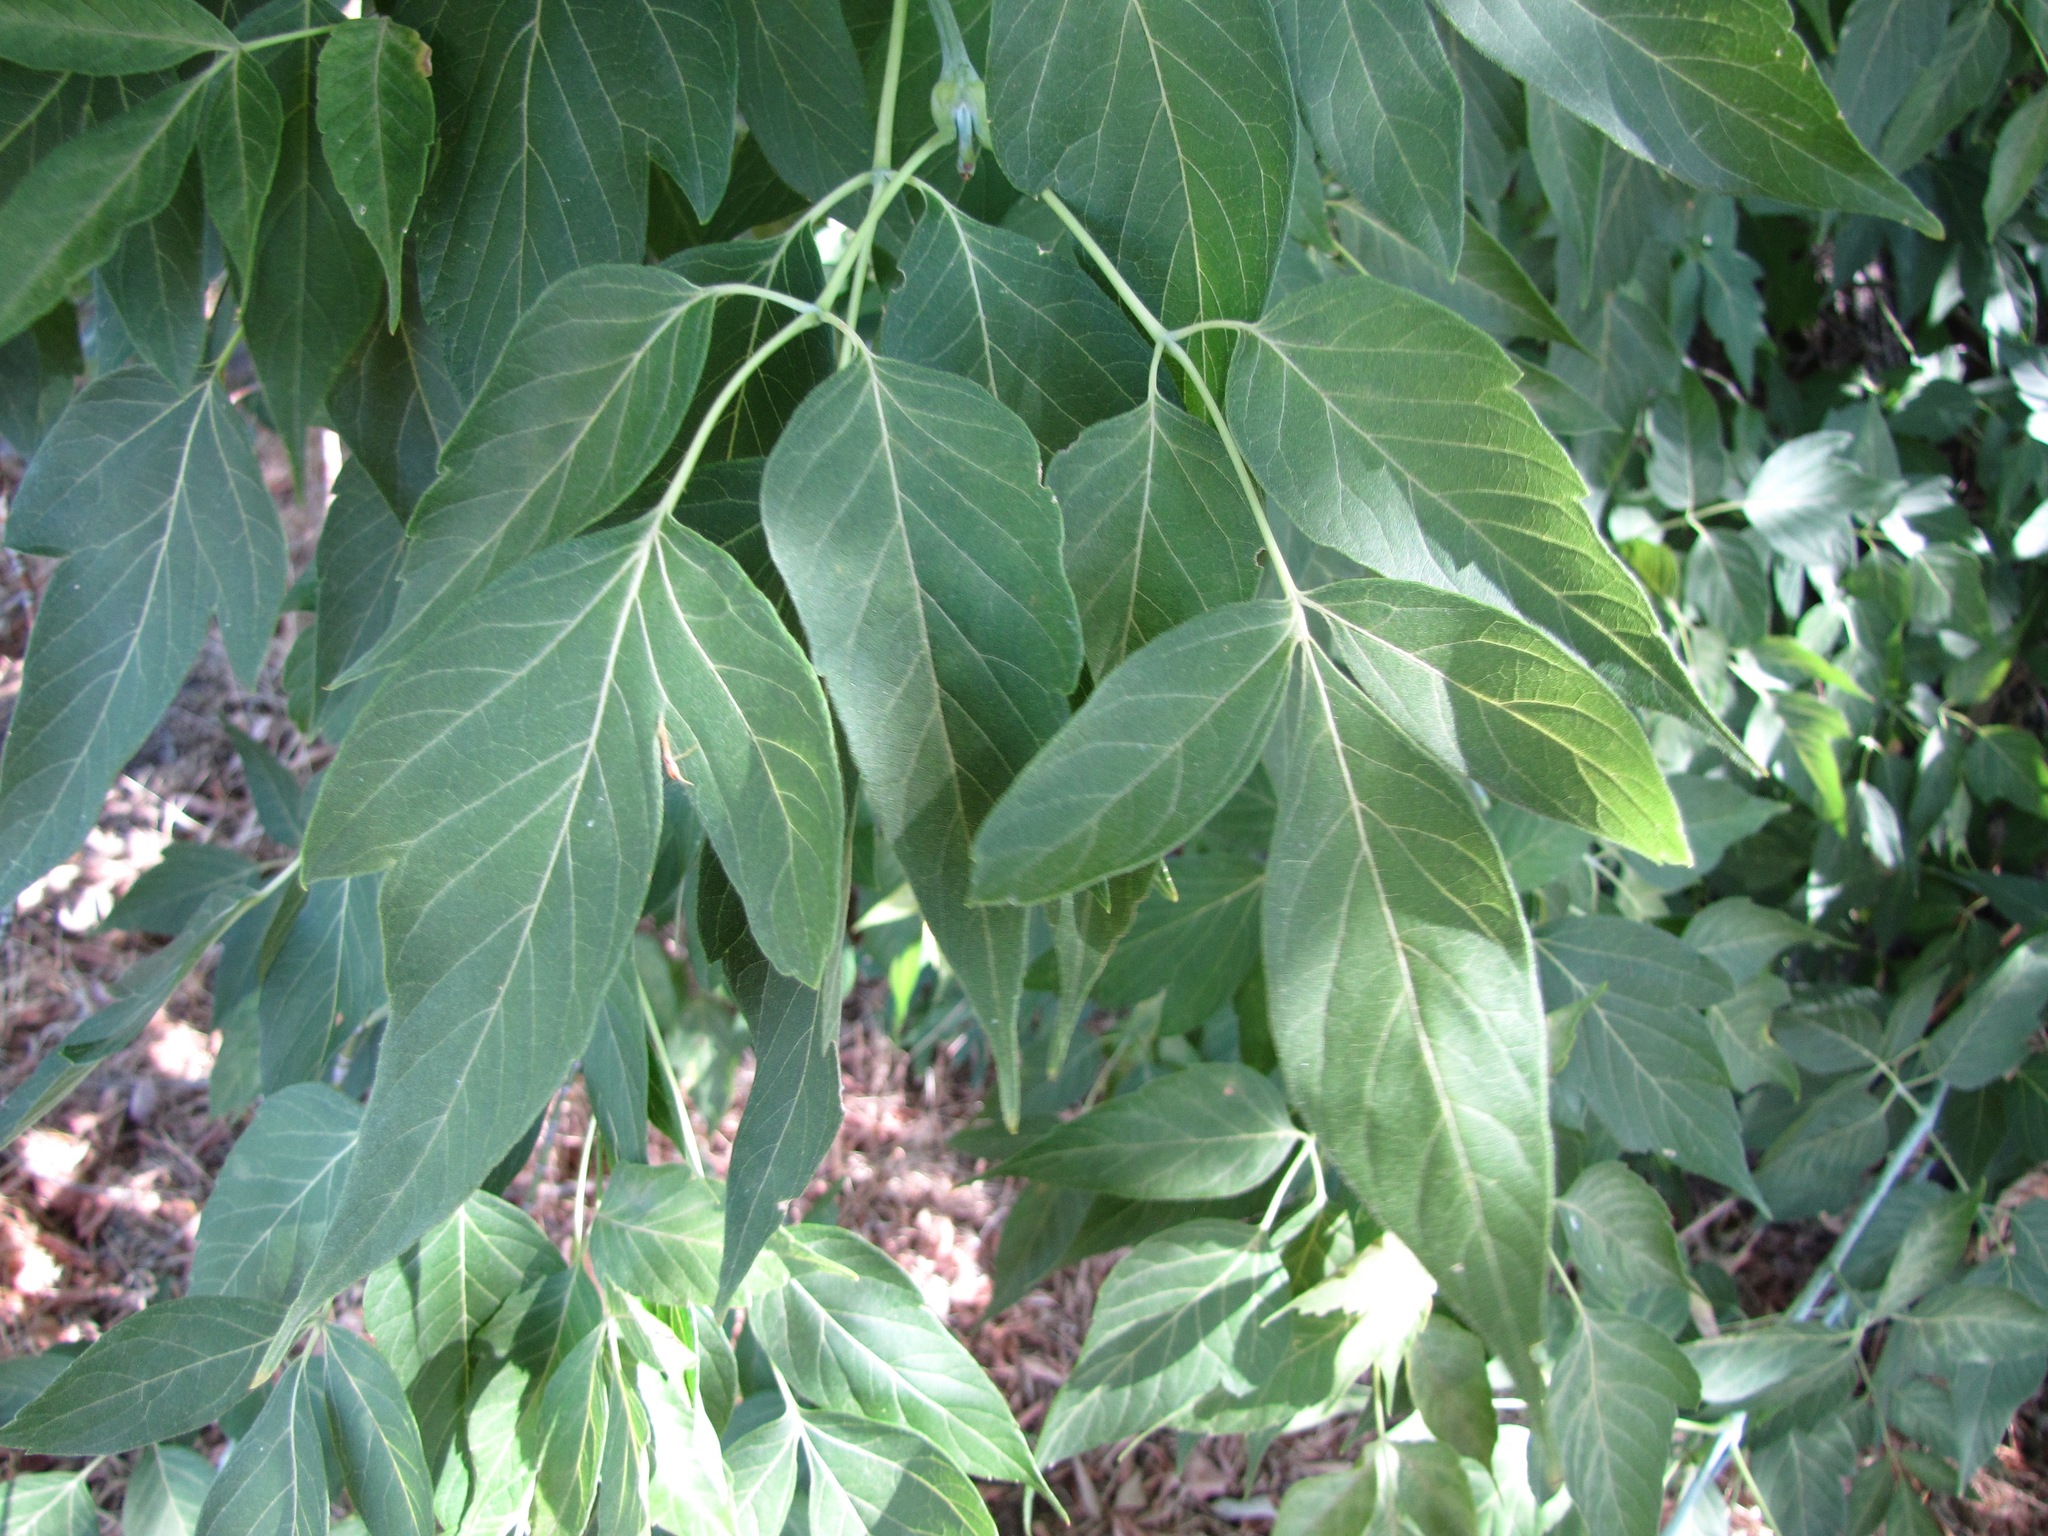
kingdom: Plantae
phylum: Tracheophyta
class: Magnoliopsida
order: Sapindales
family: Sapindaceae
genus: Acer
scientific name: Acer negundo
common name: Ashleaf maple
